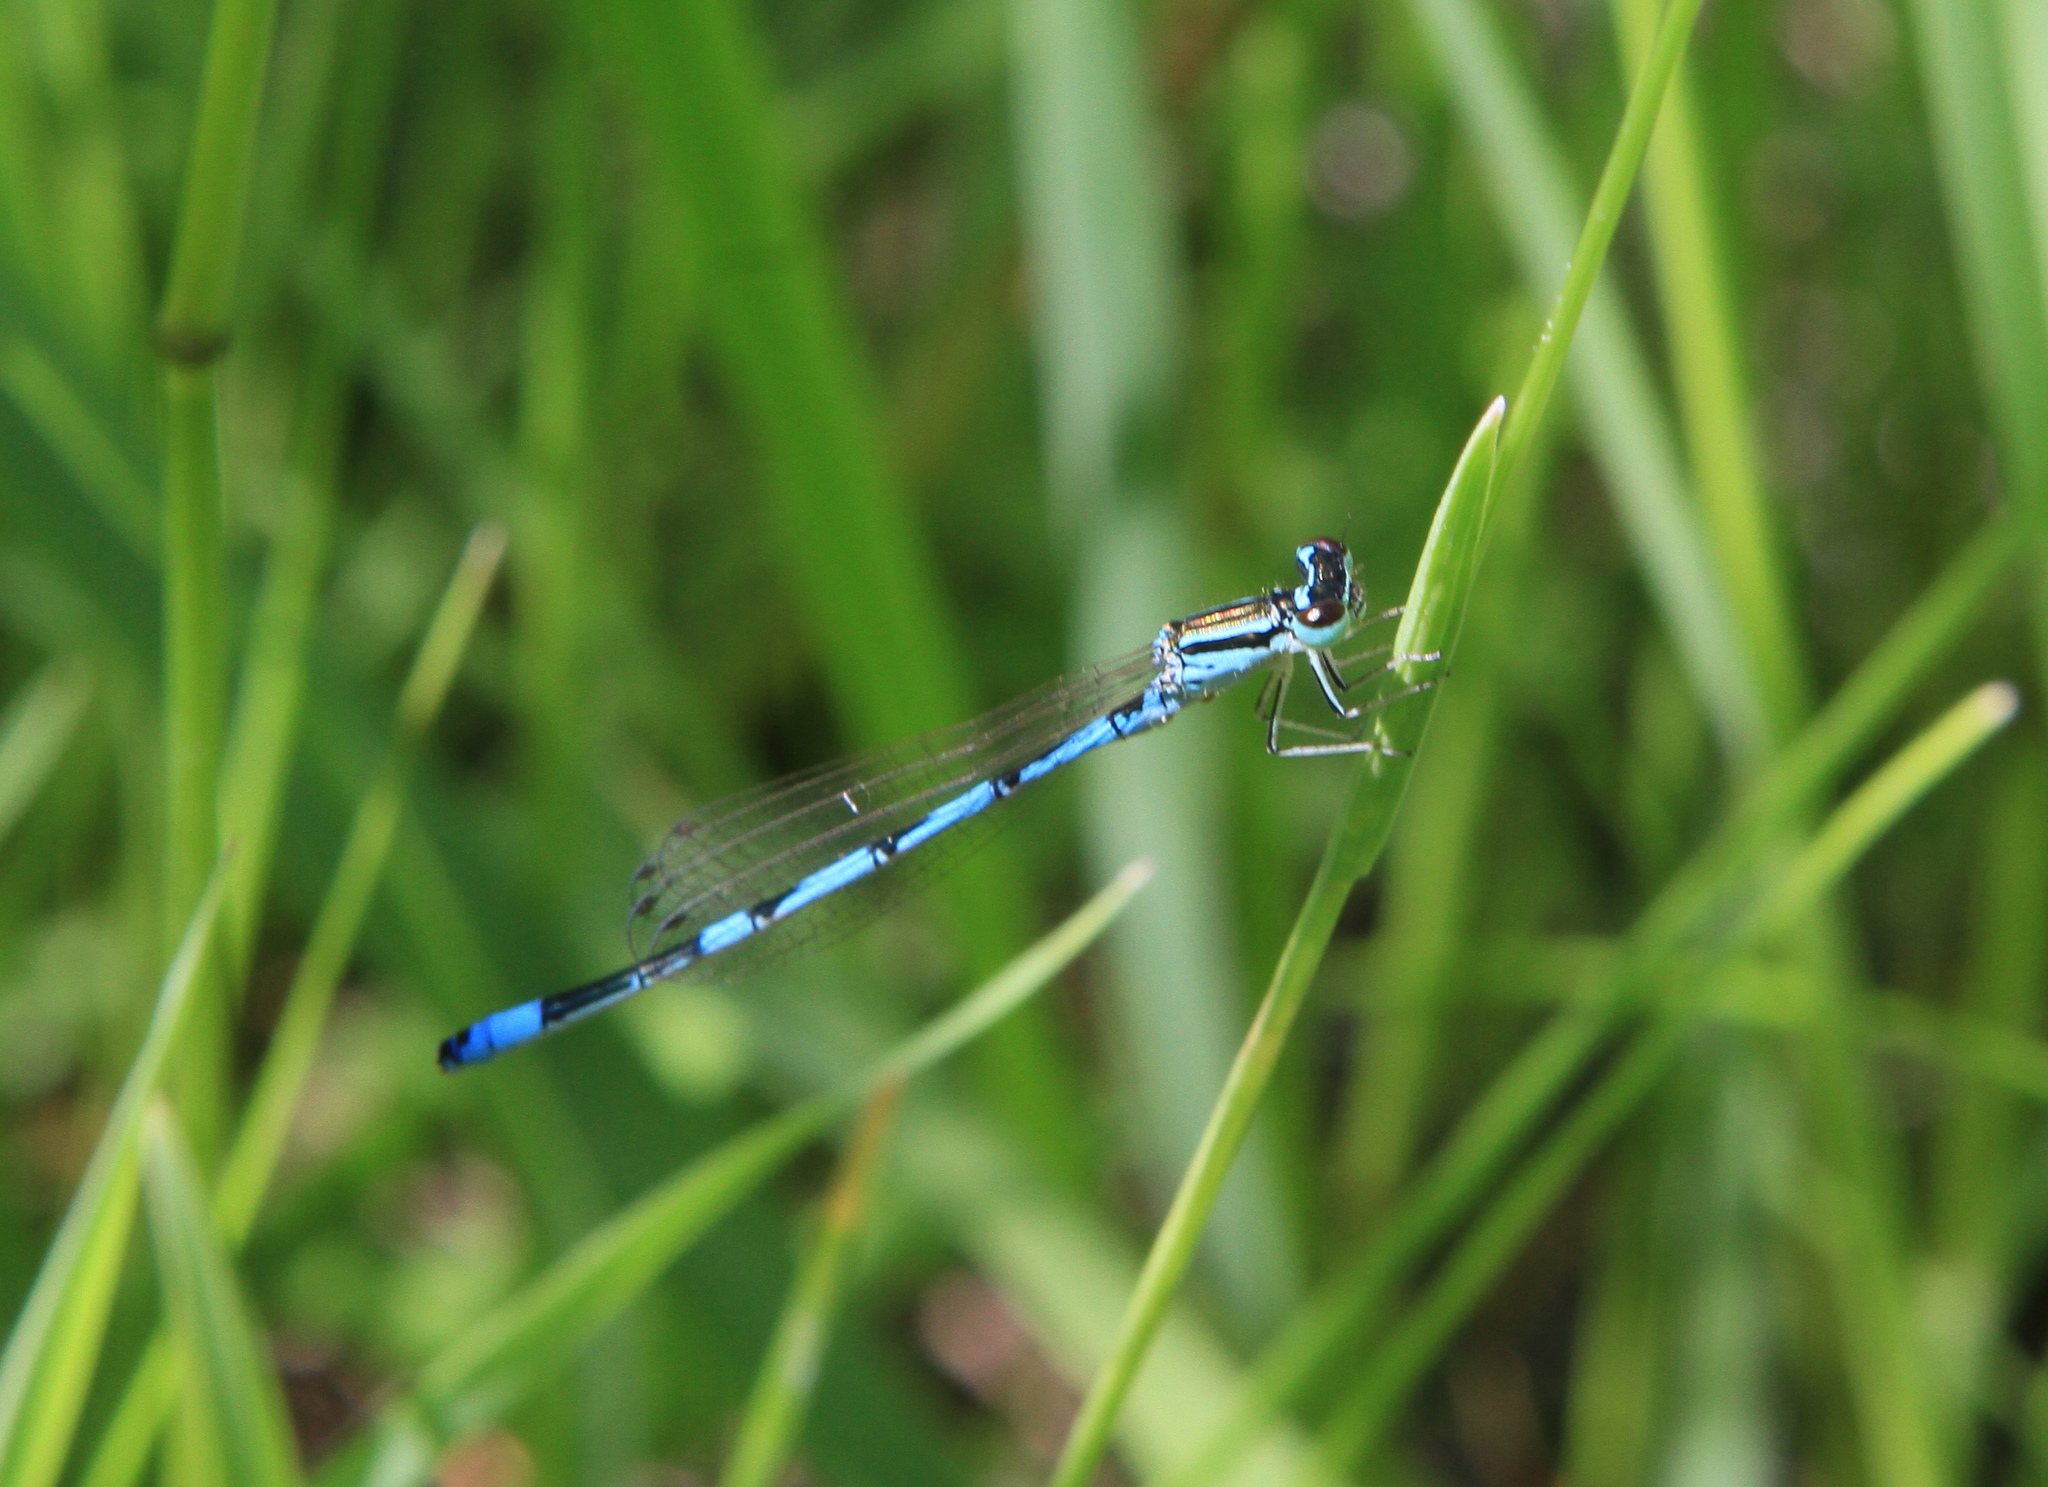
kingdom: Animalia
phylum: Arthropoda
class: Insecta
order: Odonata
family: Coenagrionidae
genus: Coenagrion
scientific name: Coenagrion ecornutum
